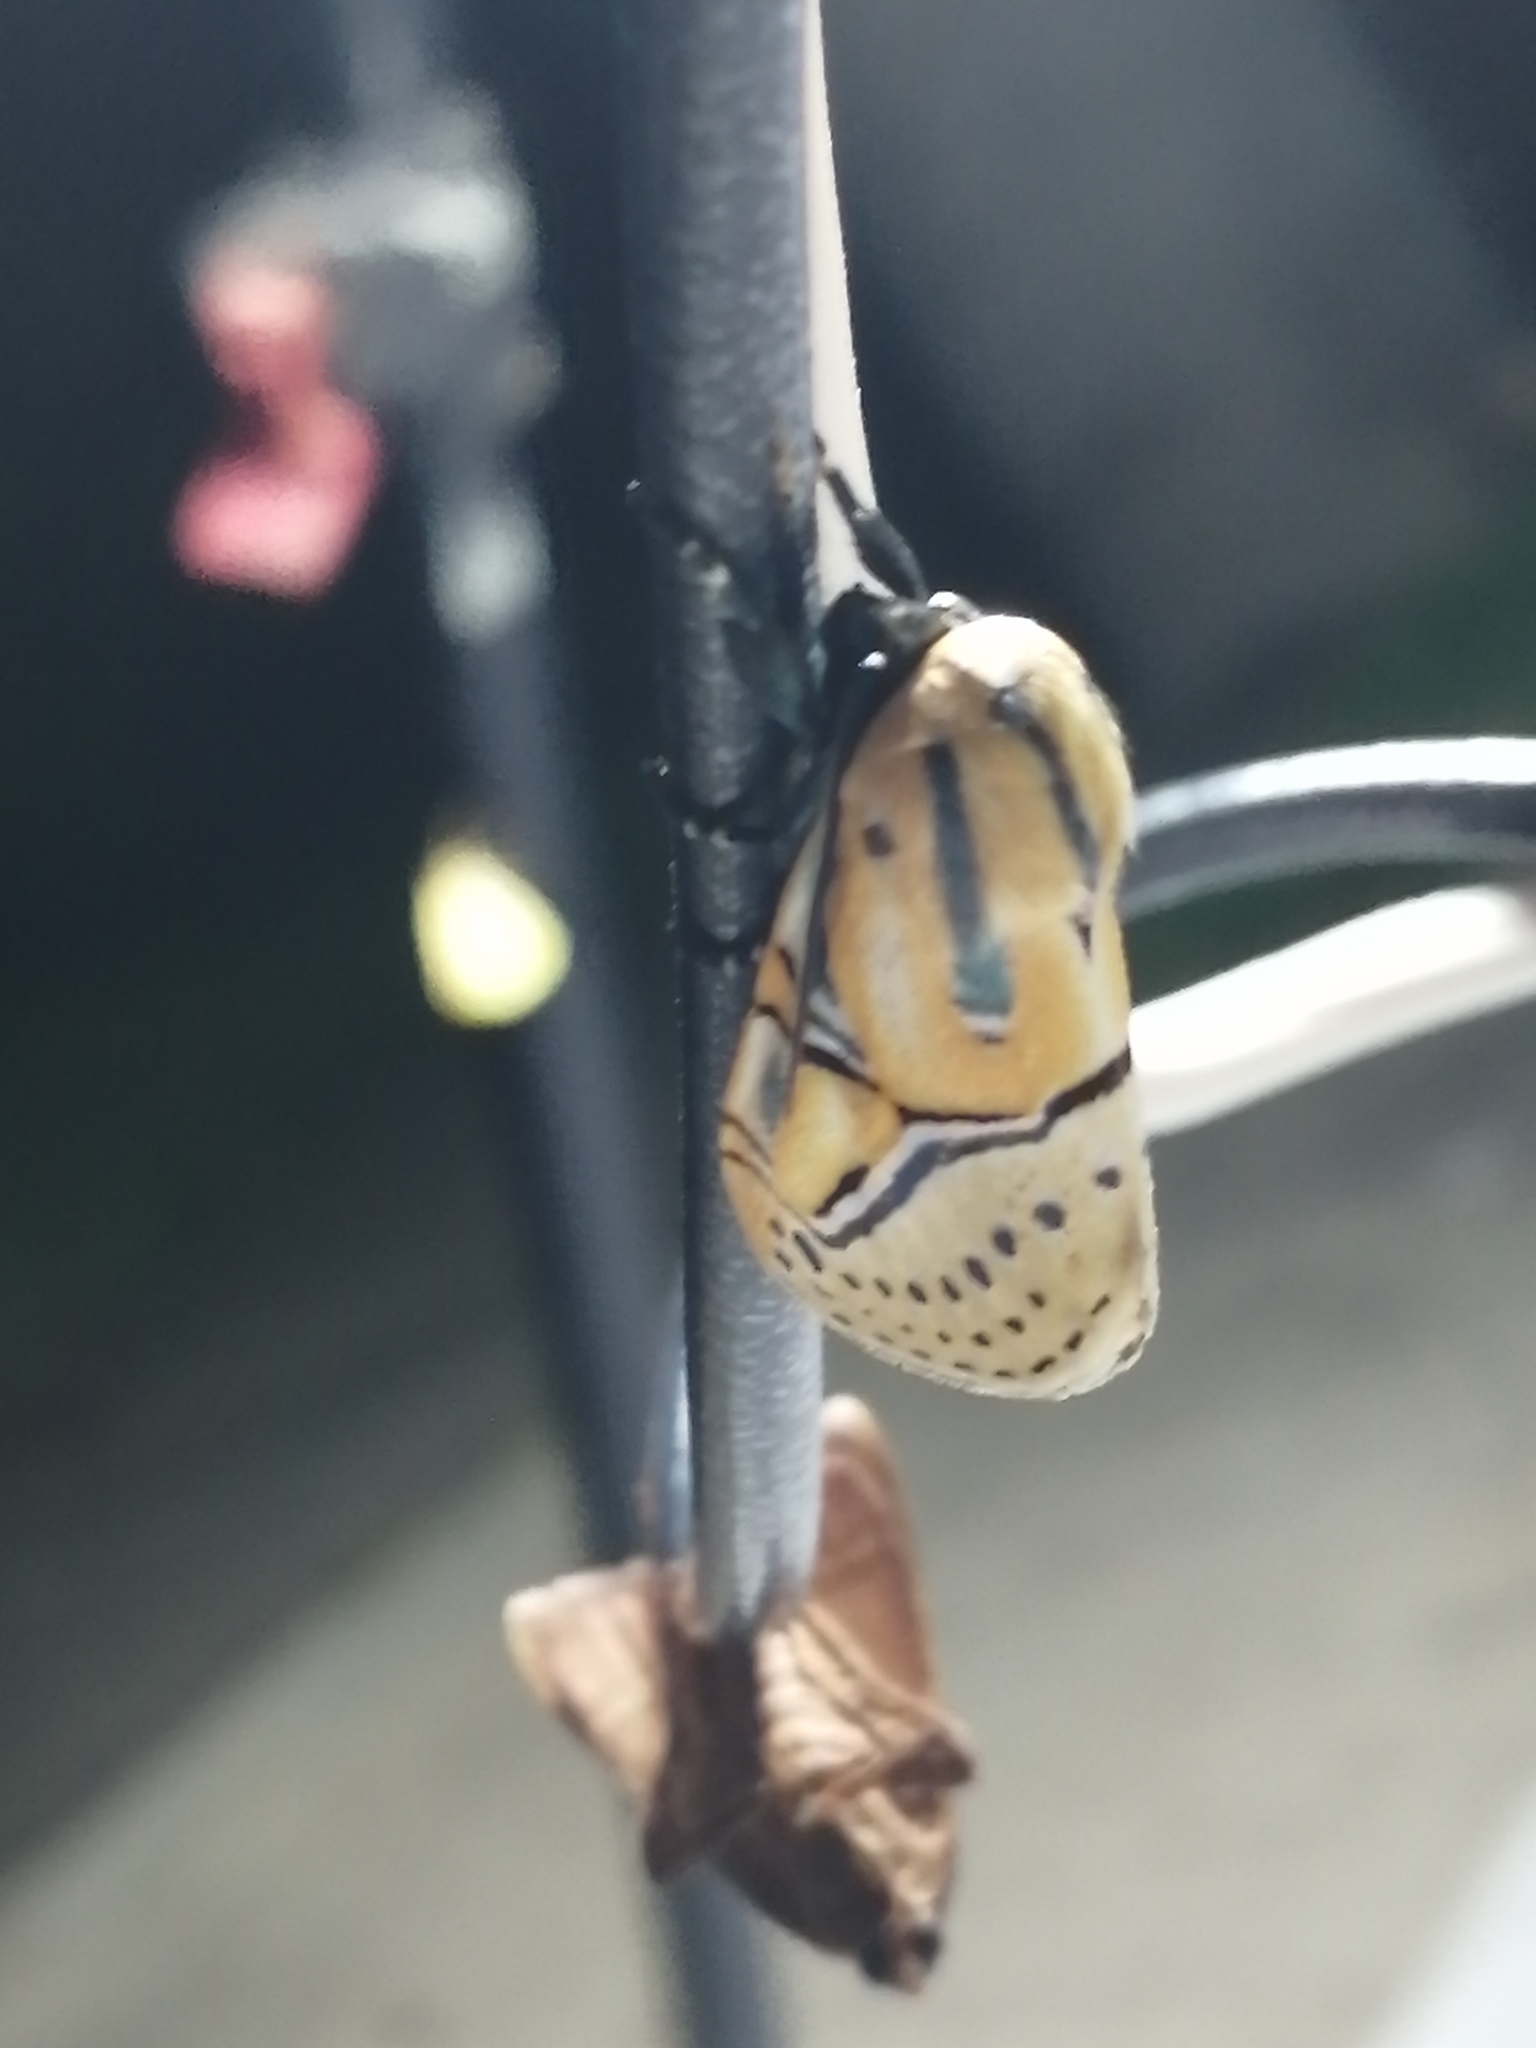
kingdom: Animalia
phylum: Arthropoda
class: Insecta
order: Lepidoptera
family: Erebidae
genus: Diphthera
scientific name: Diphthera festiva
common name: Hieroglyphic moth
